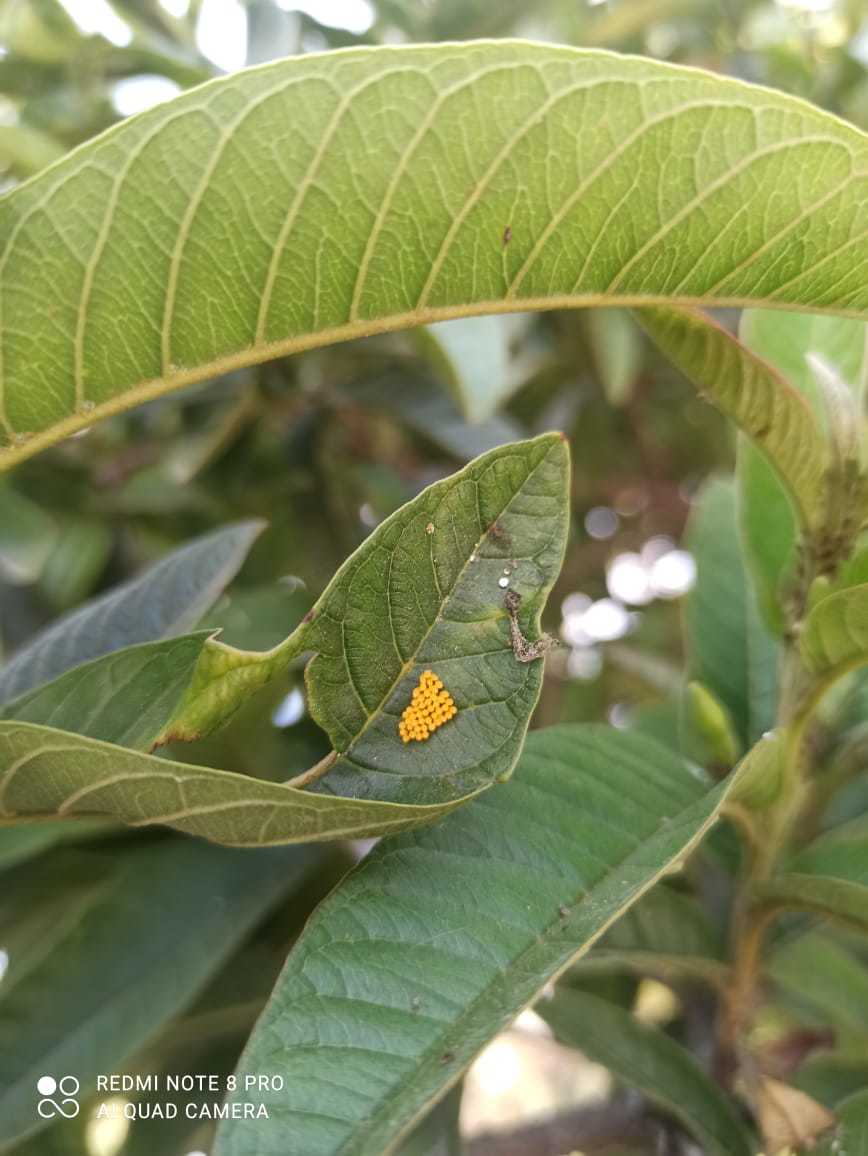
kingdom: Animalia
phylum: Arthropoda
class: Insecta
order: Coleoptera
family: Coccinellidae
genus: Harmonia
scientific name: Harmonia axyridis
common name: Harlequin ladybird
